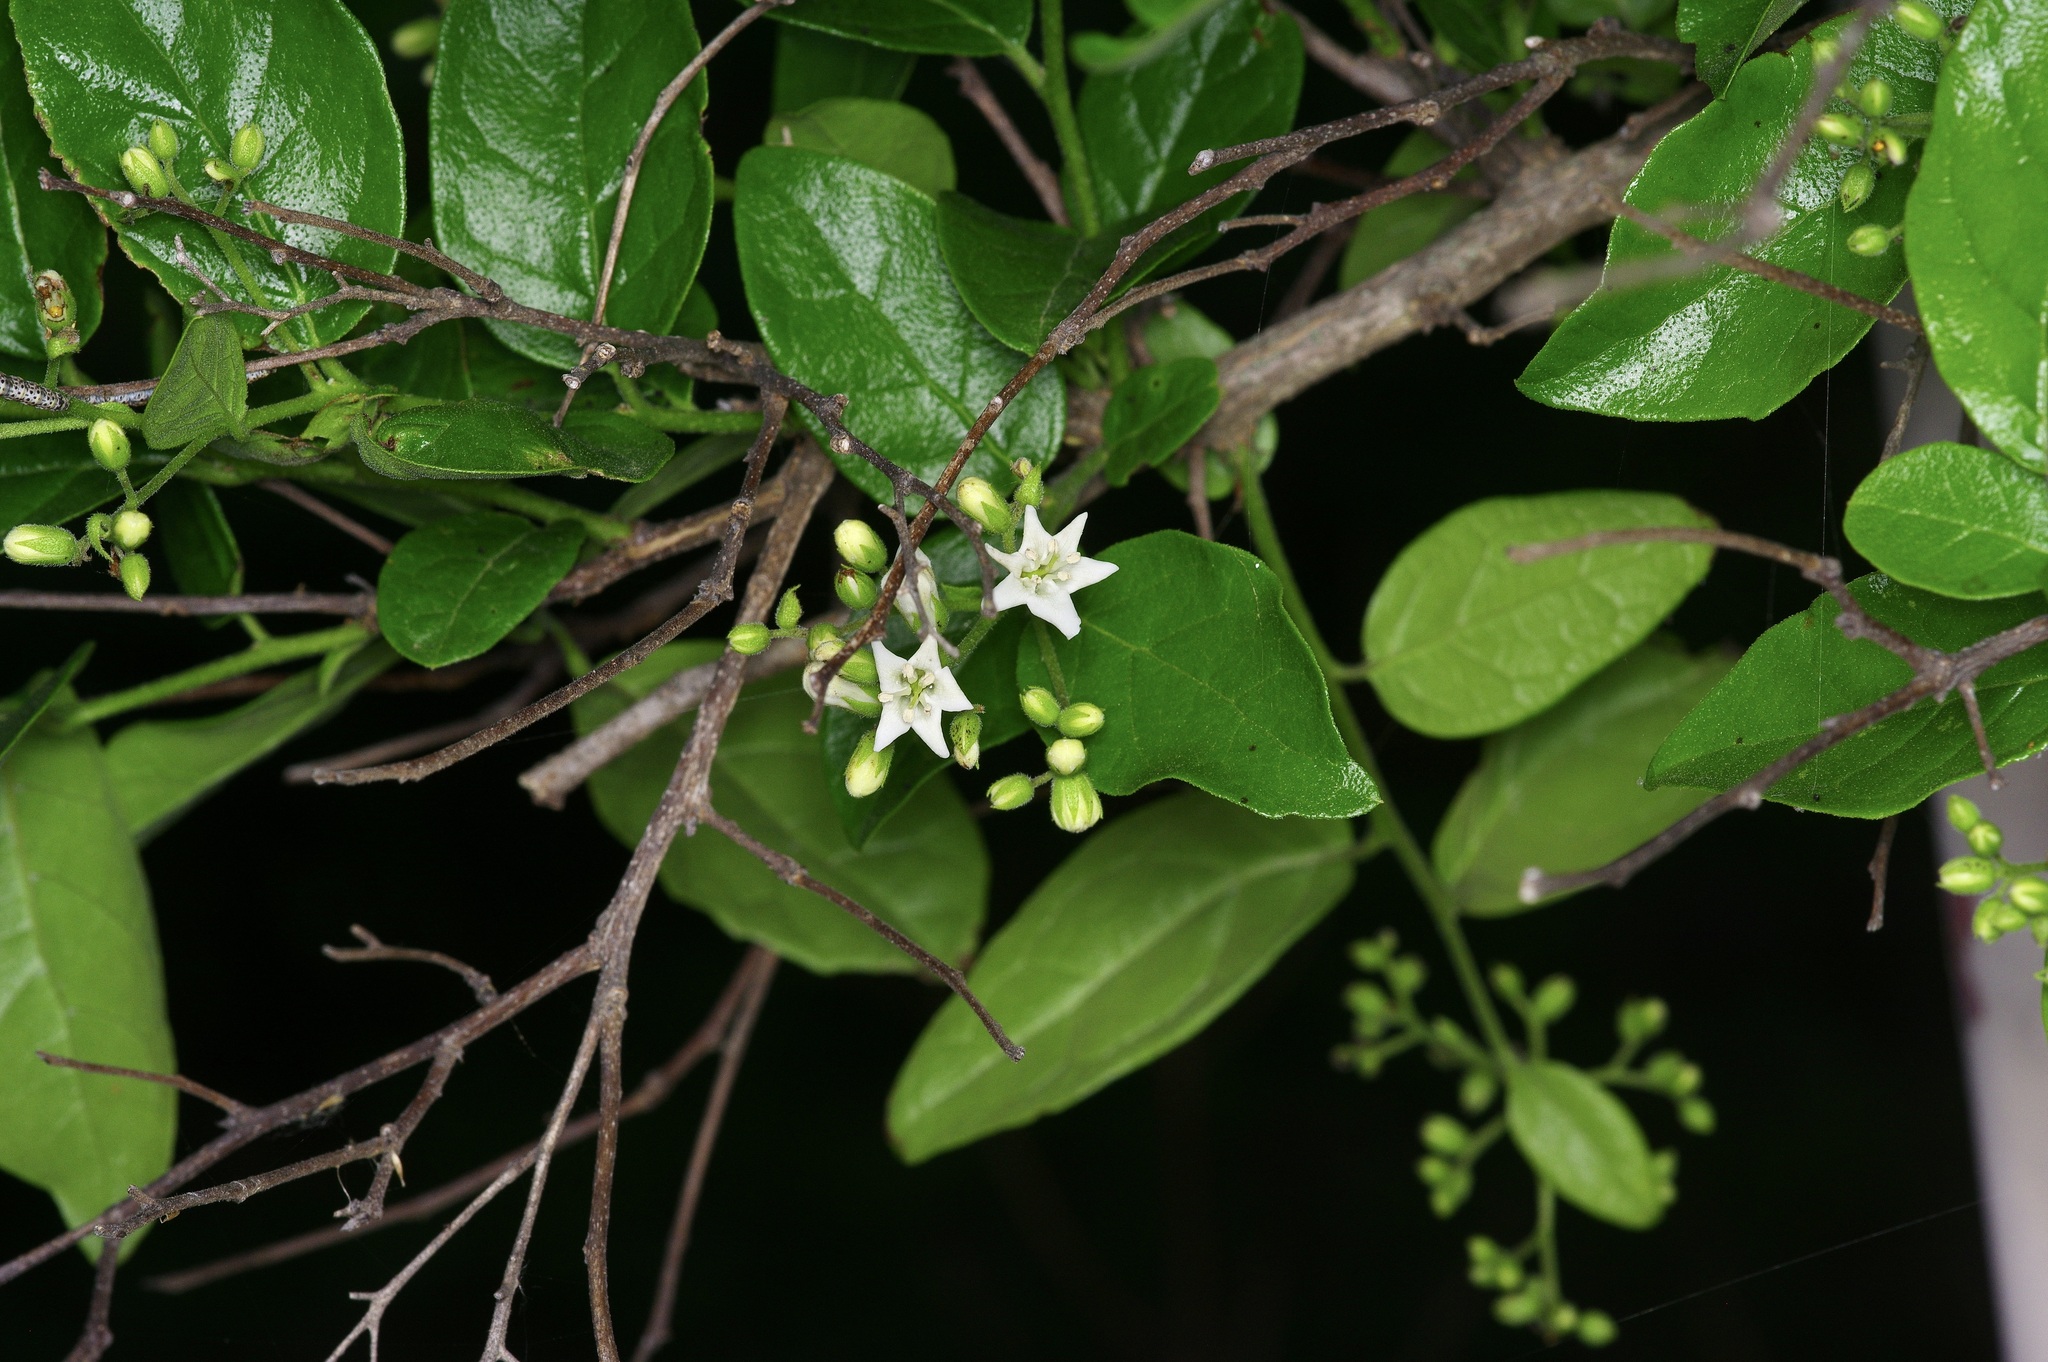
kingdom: Plantae
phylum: Tracheophyta
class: Magnoliopsida
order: Boraginales
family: Ehretiaceae
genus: Ehretia
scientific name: Ehretia anacua
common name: Sugarberry
